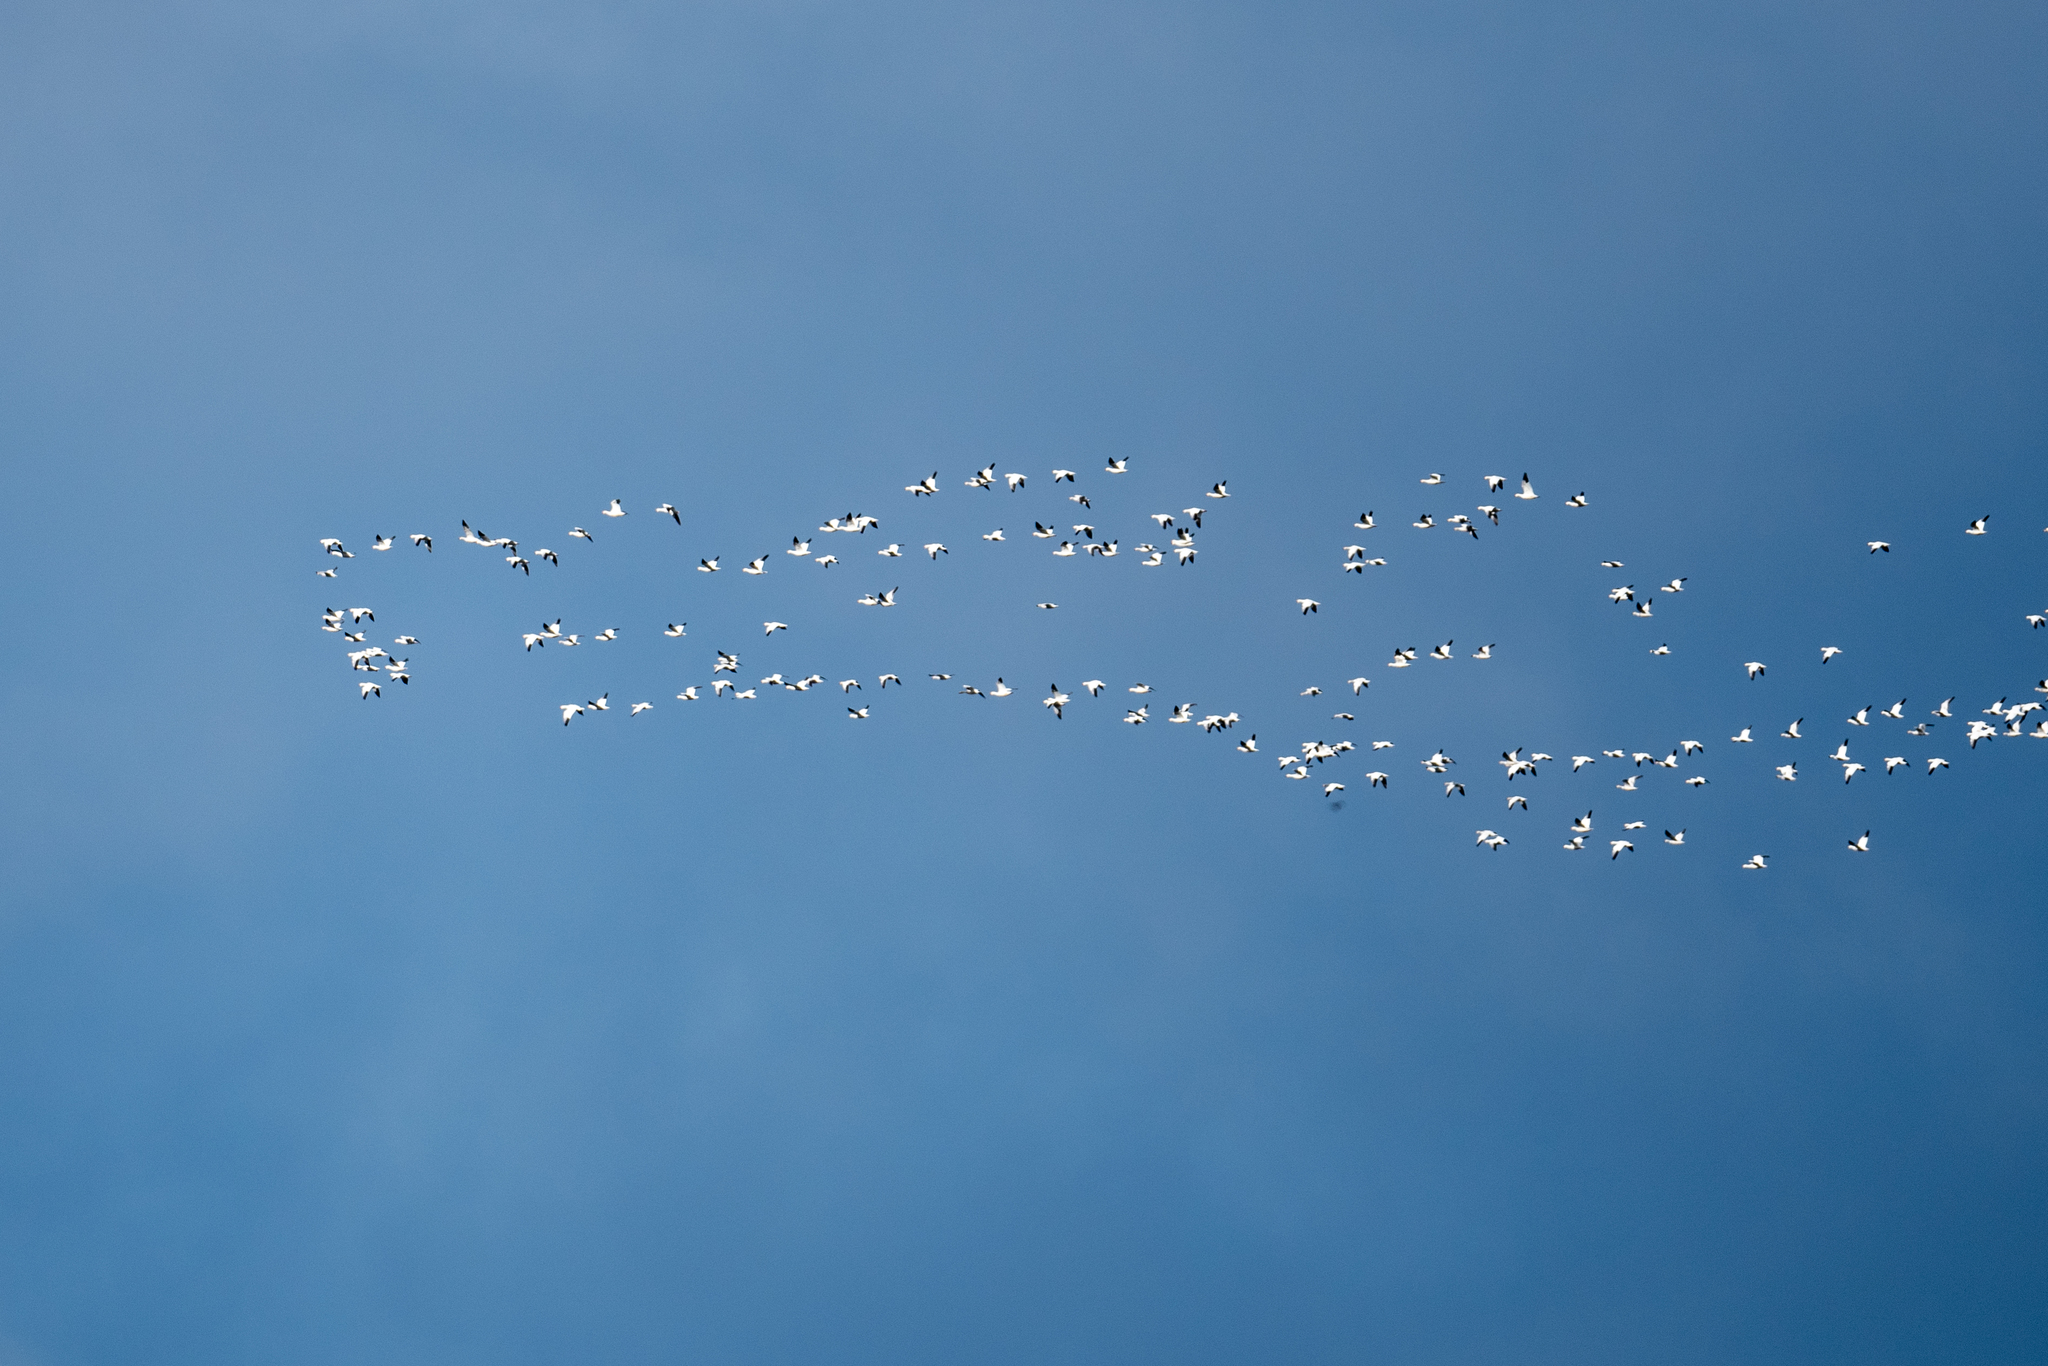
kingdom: Animalia
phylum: Chordata
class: Aves
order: Anseriformes
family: Anatidae
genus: Anser
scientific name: Anser caerulescens
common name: Snow goose
